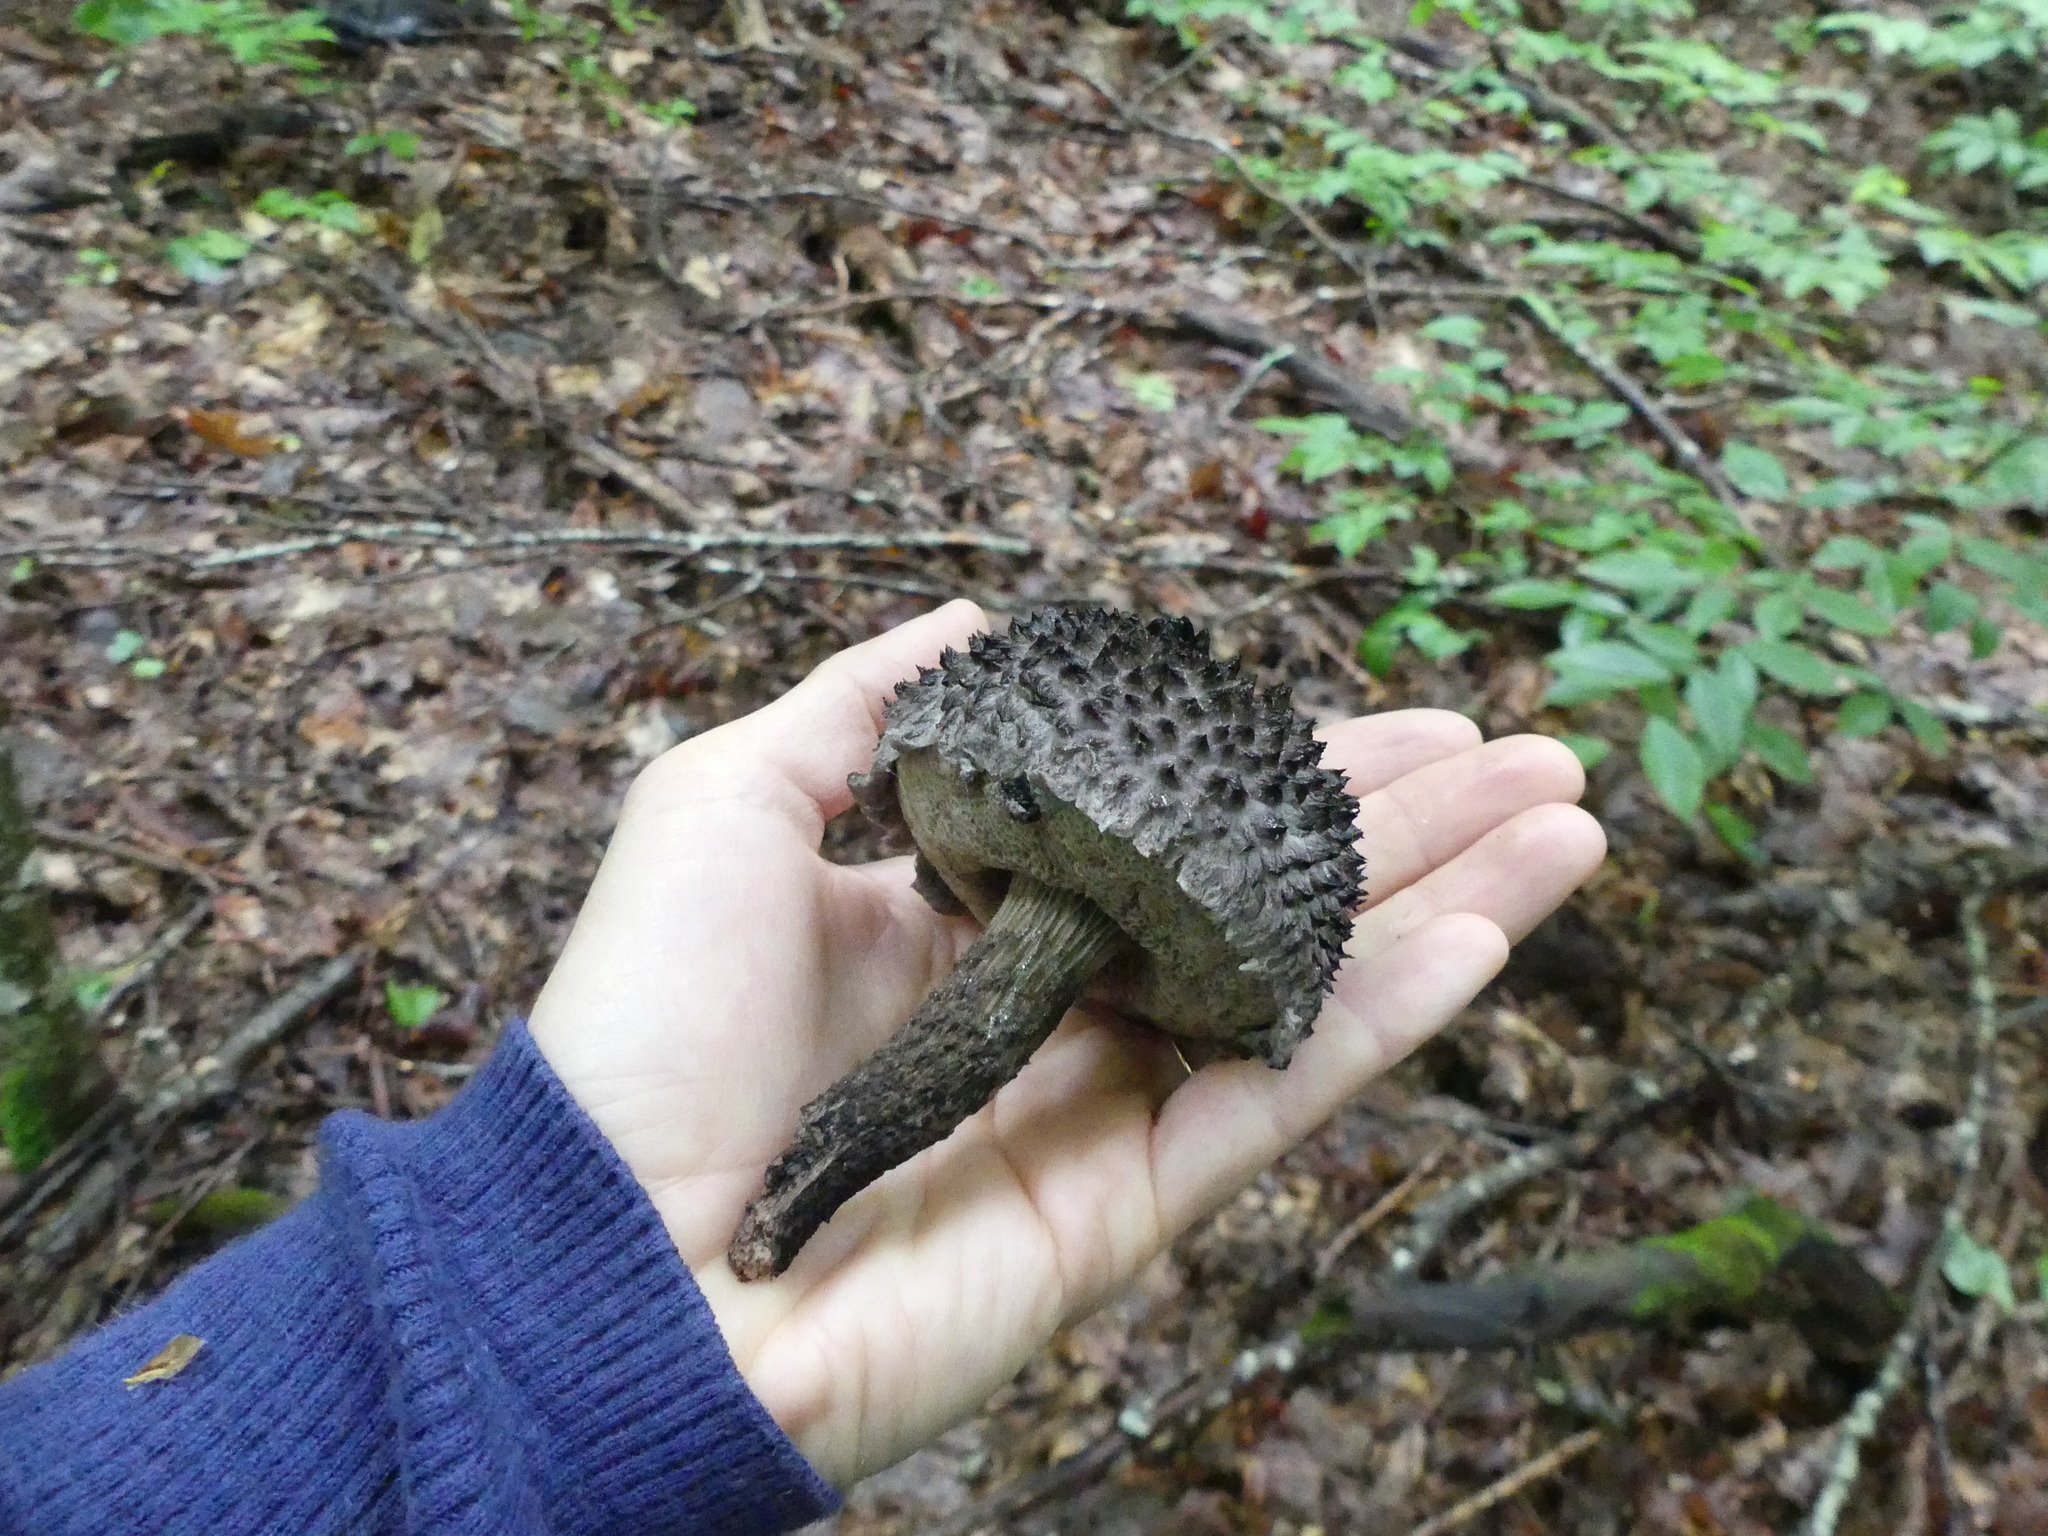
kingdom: Fungi
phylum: Basidiomycota
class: Agaricomycetes
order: Boletales
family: Boletaceae
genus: Strobilomyces
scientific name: Strobilomyces strobilaceus
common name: Old man of the woods
